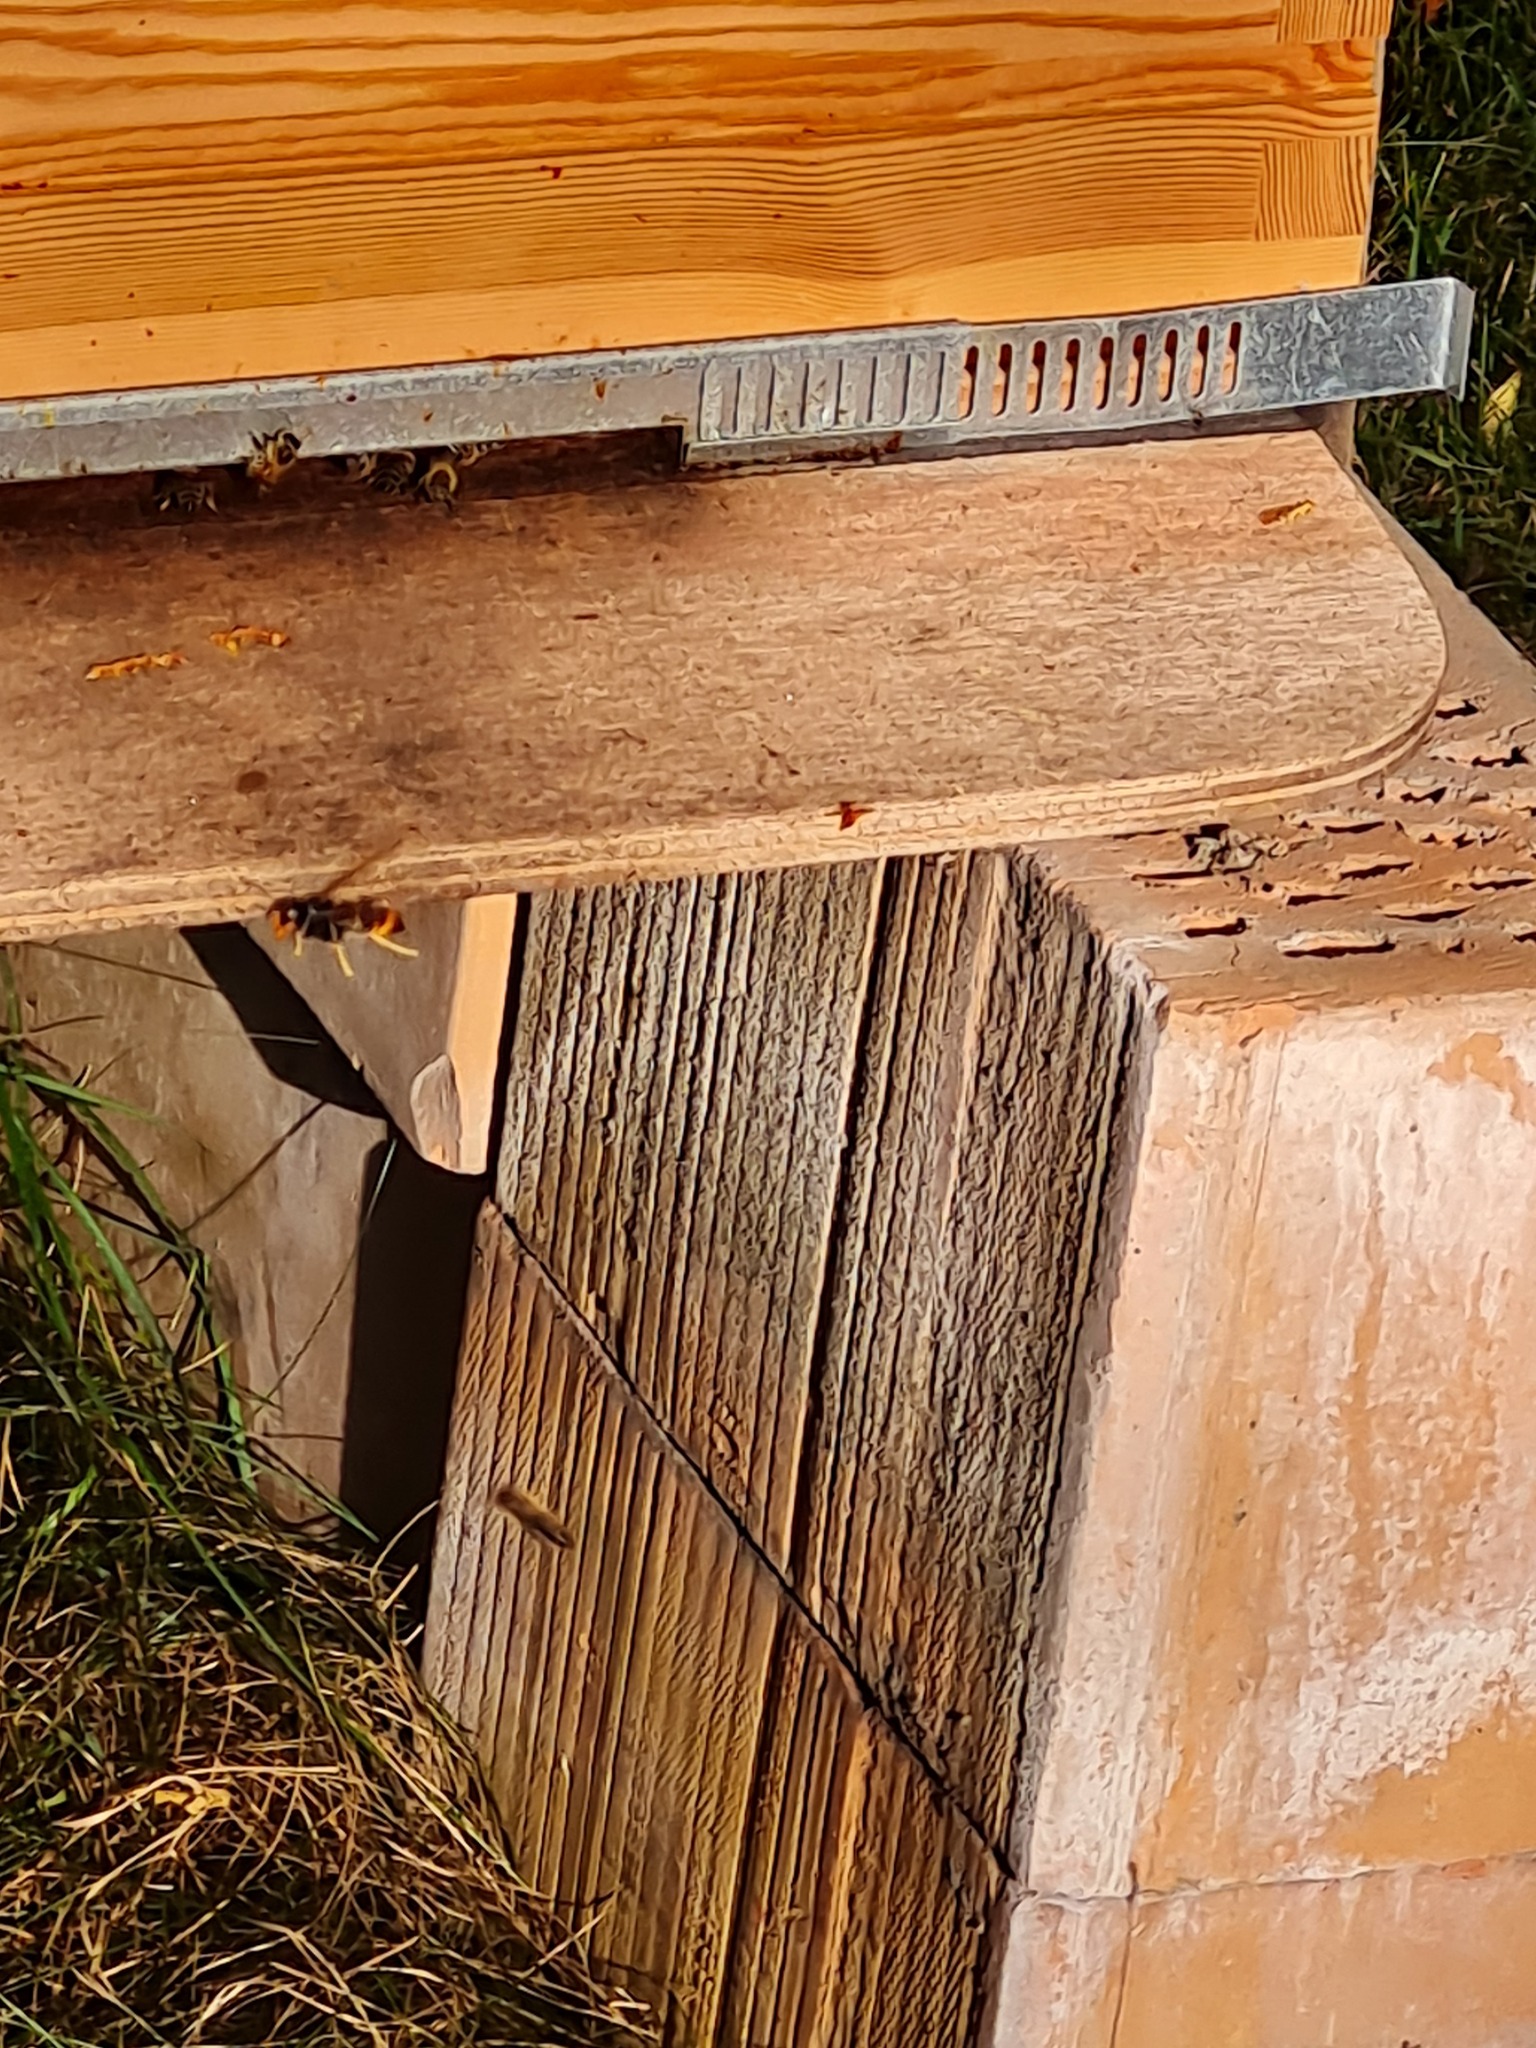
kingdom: Animalia
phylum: Arthropoda
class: Insecta
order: Hymenoptera
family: Vespidae
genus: Vespa
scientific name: Vespa velutina
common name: Asian hornet
